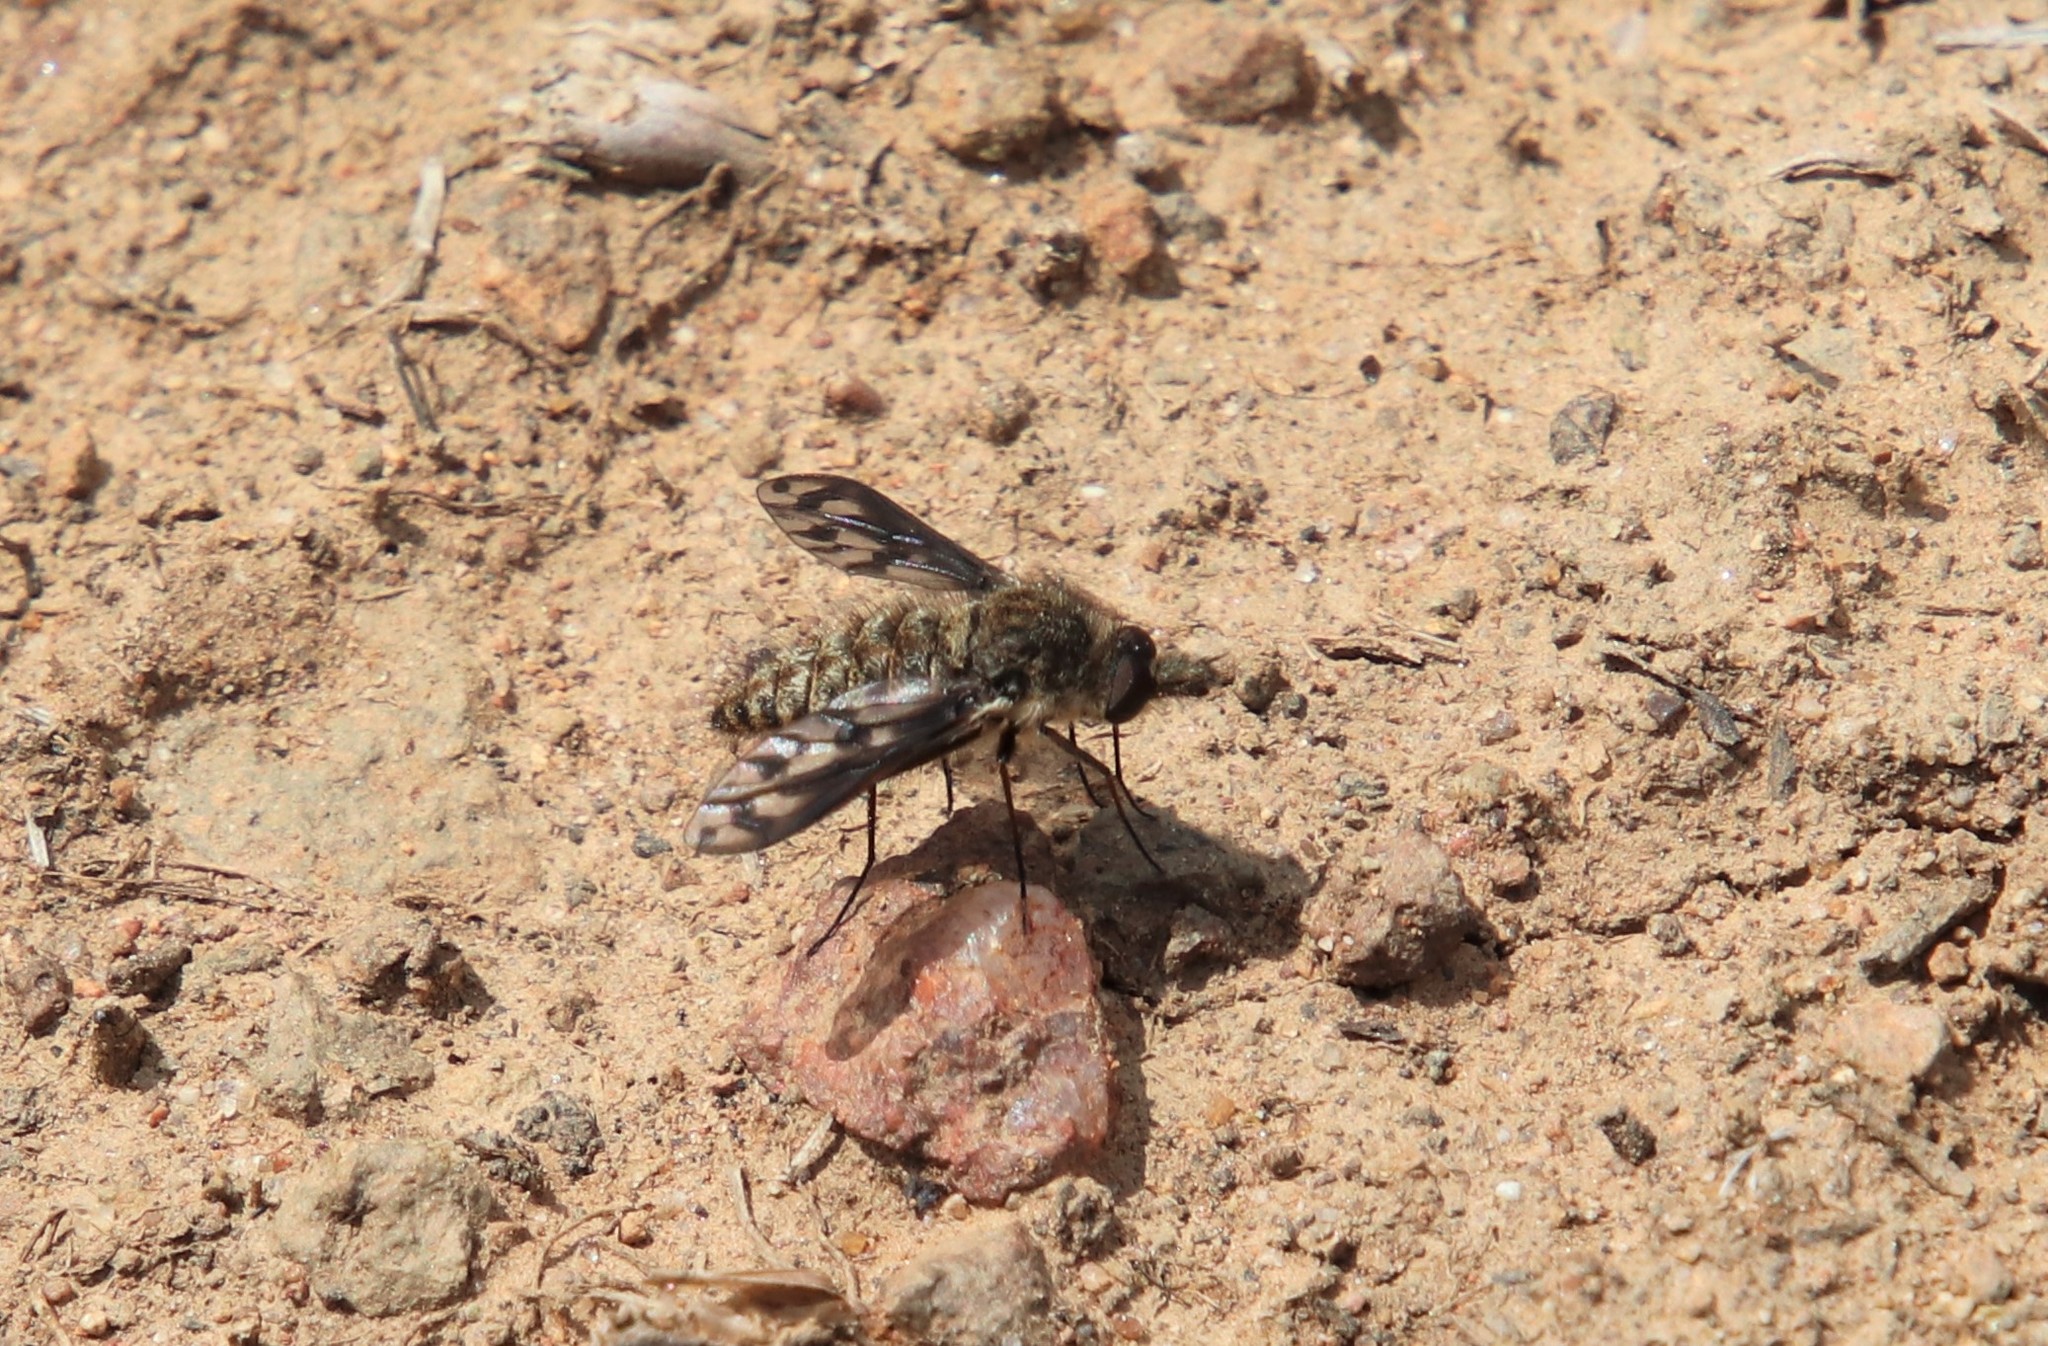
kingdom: Animalia
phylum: Arthropoda
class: Insecta
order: Diptera
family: Bombyliidae
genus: Conophorus
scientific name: Conophorus fenestratus
